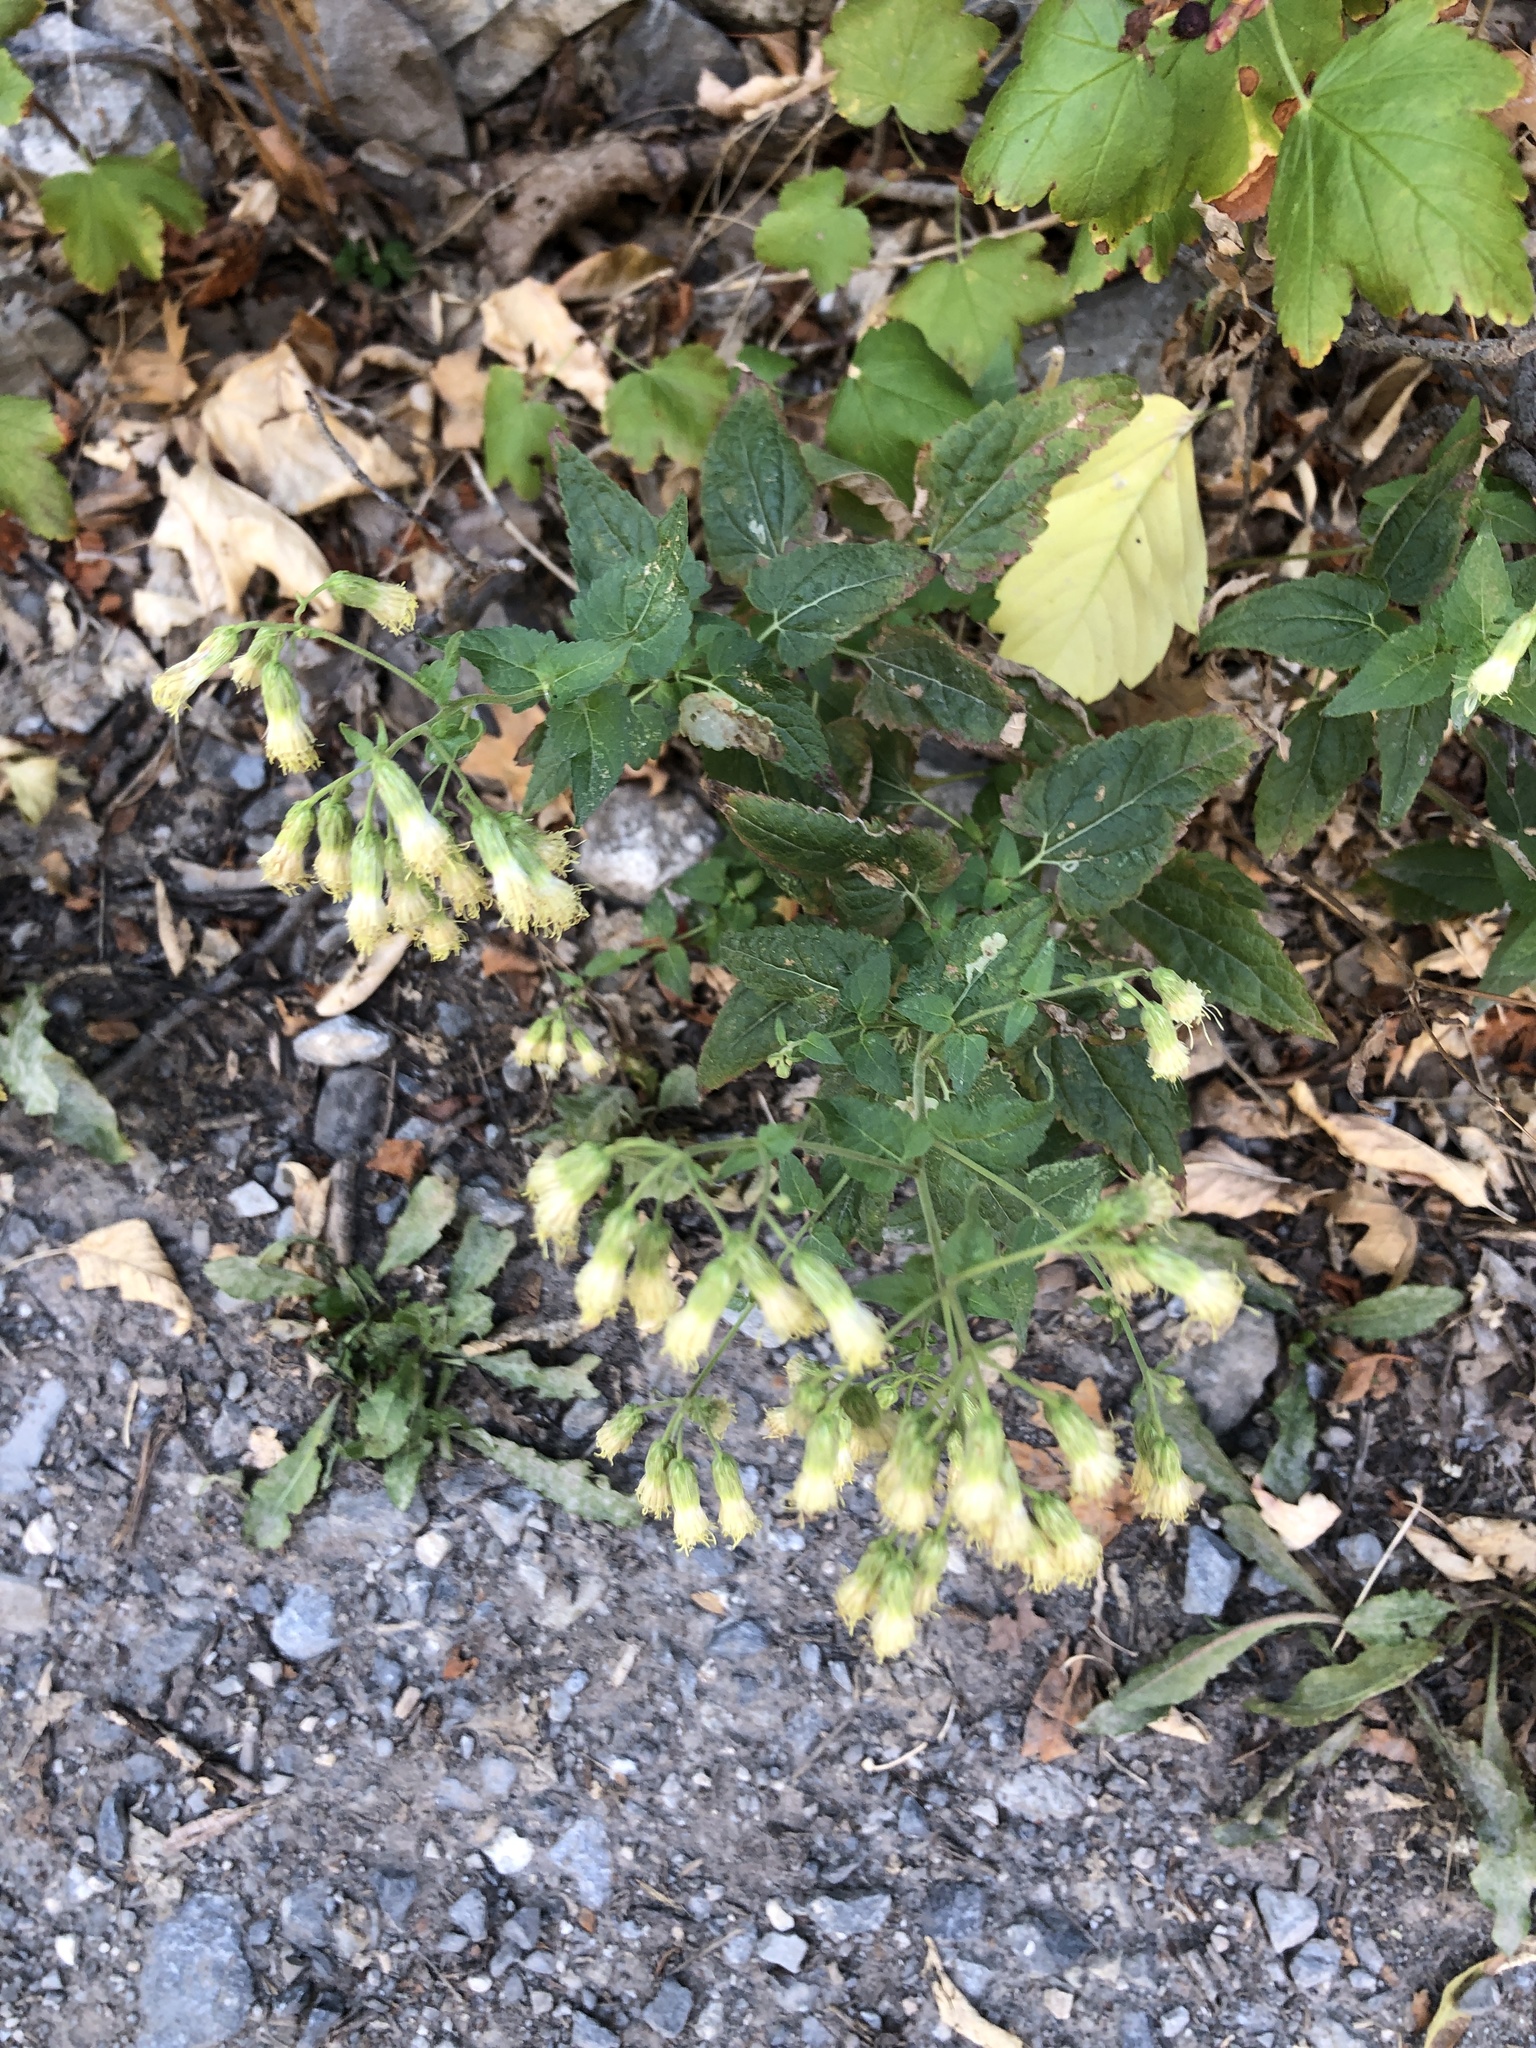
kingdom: Plantae
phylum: Tracheophyta
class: Magnoliopsida
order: Asterales
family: Asteraceae
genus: Brickellia
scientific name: Brickellia grandiflora
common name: Large-flowered brickellia
